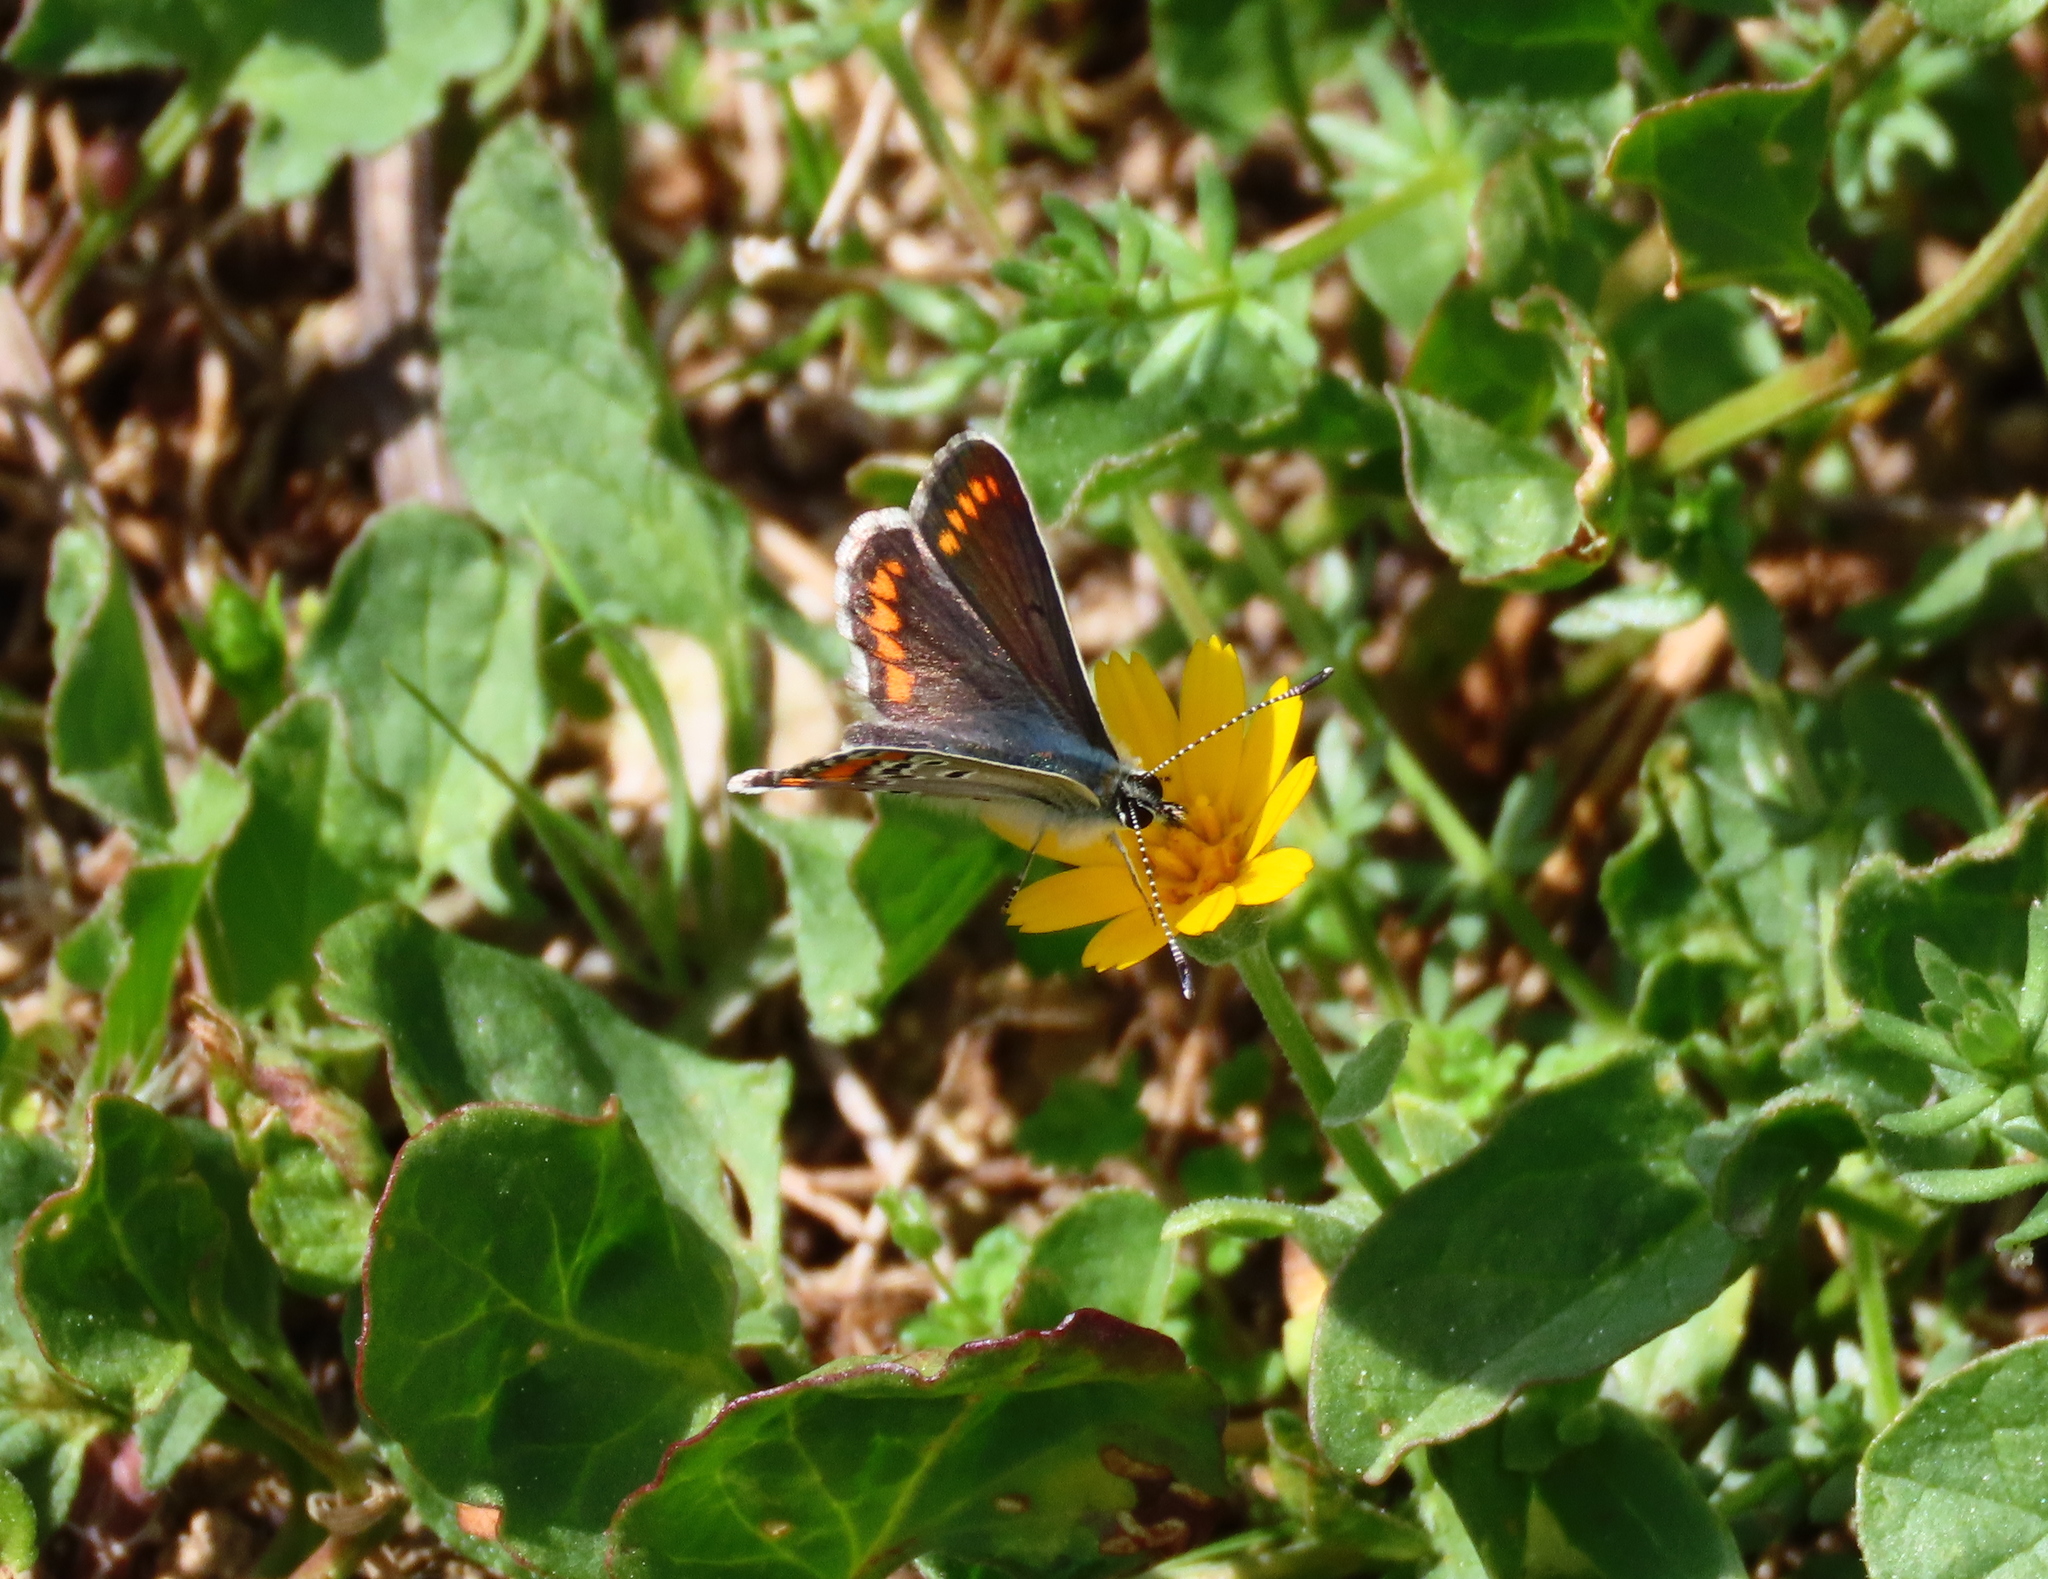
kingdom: Animalia
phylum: Arthropoda
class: Insecta
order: Lepidoptera
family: Lycaenidae
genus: Aricia
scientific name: Aricia agestis
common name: Brown argus
